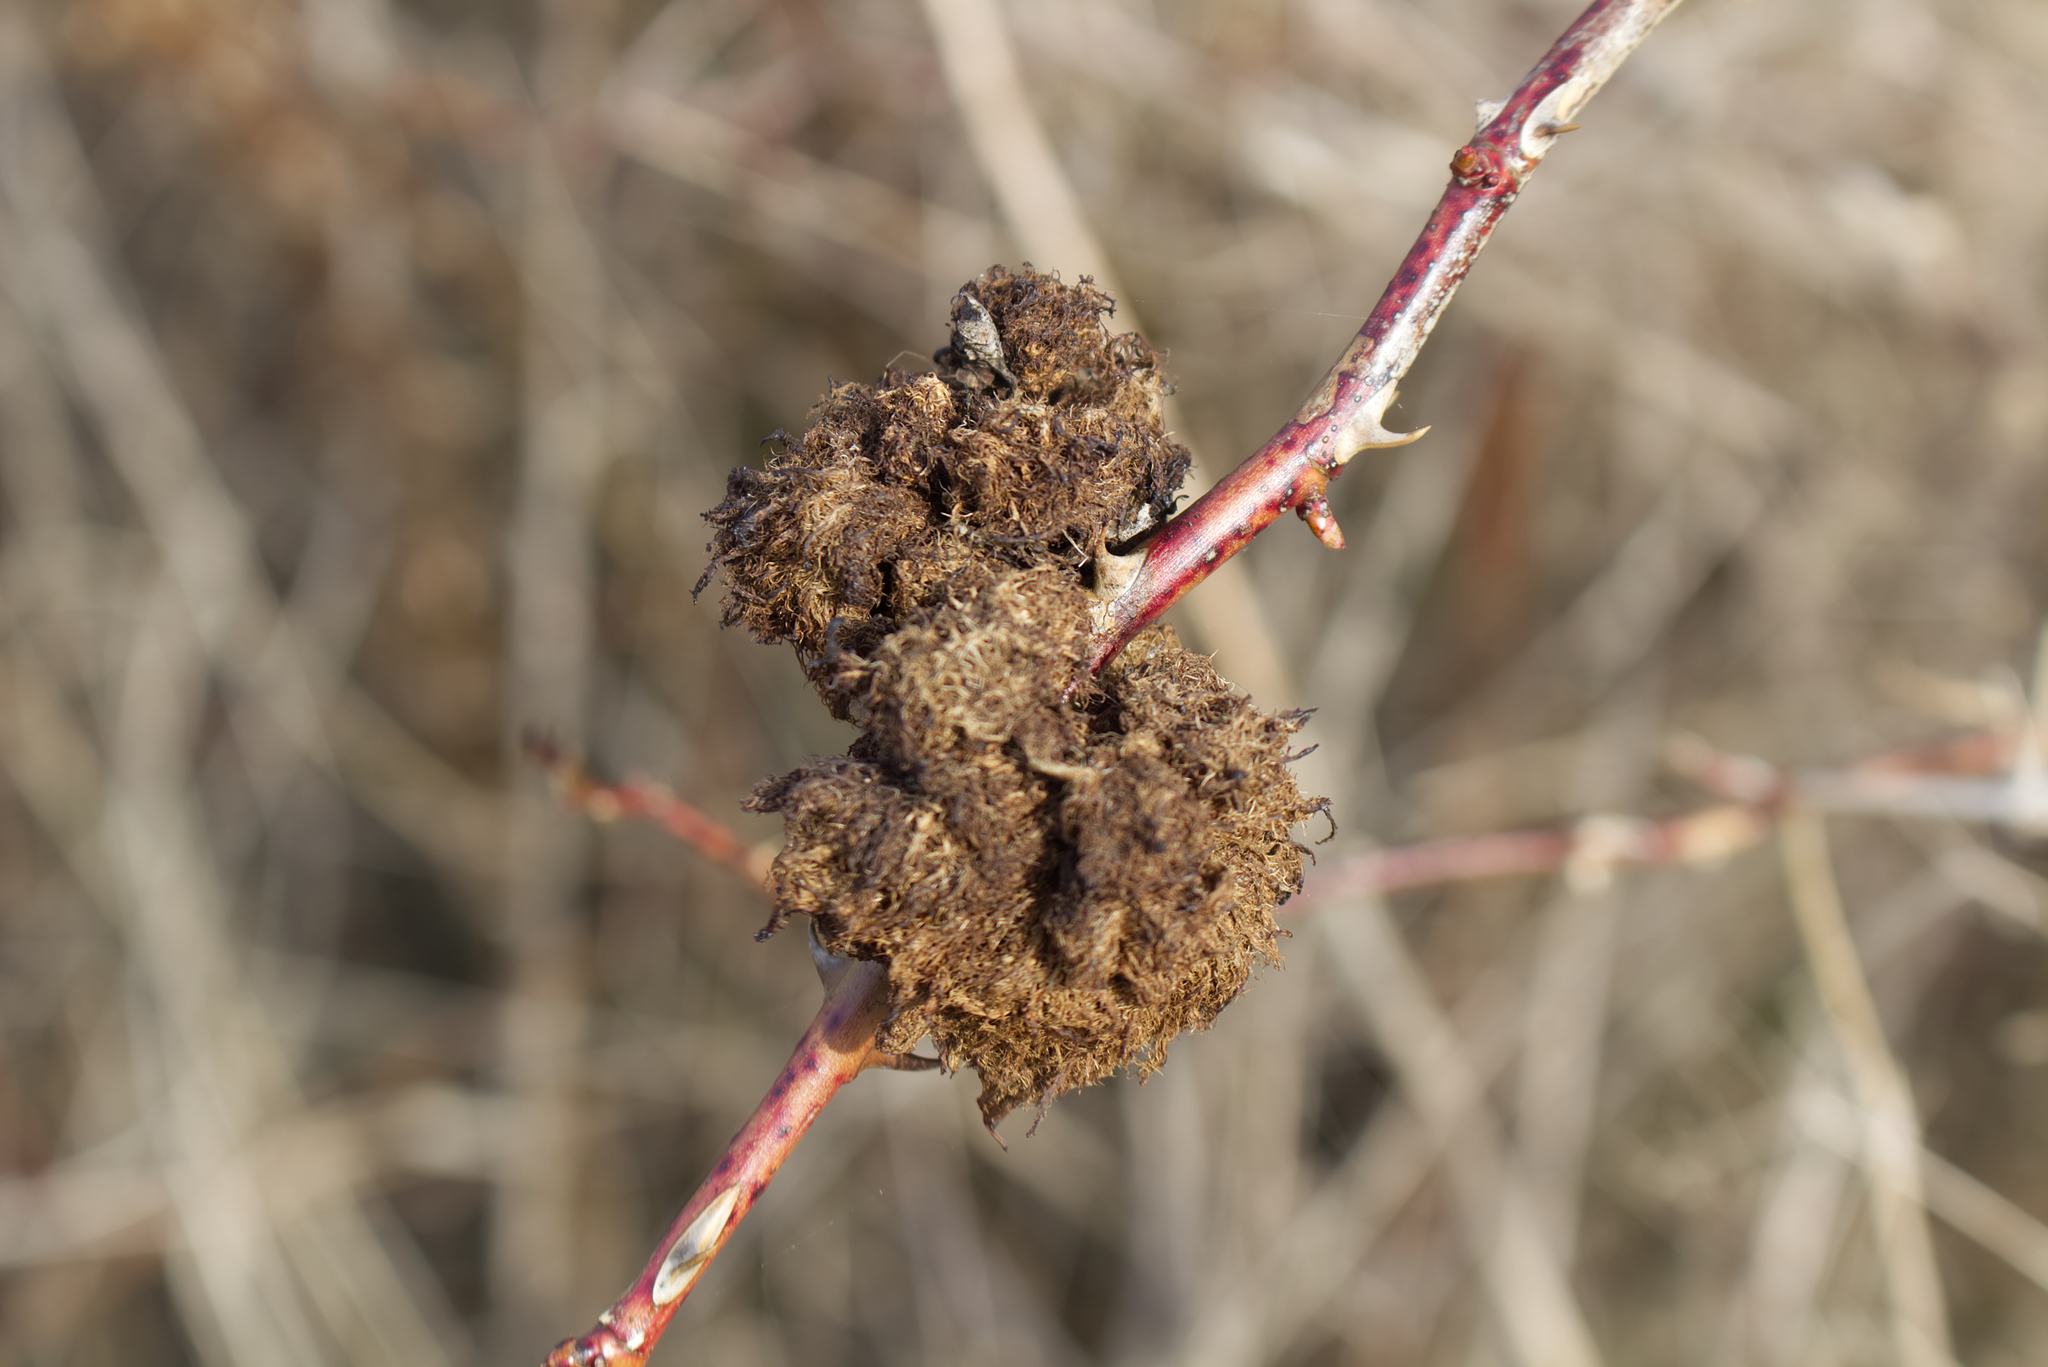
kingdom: Animalia
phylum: Arthropoda
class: Insecta
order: Hymenoptera
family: Cynipidae
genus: Diplolepis
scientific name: Diplolepis rosae
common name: Bedeguar gall
